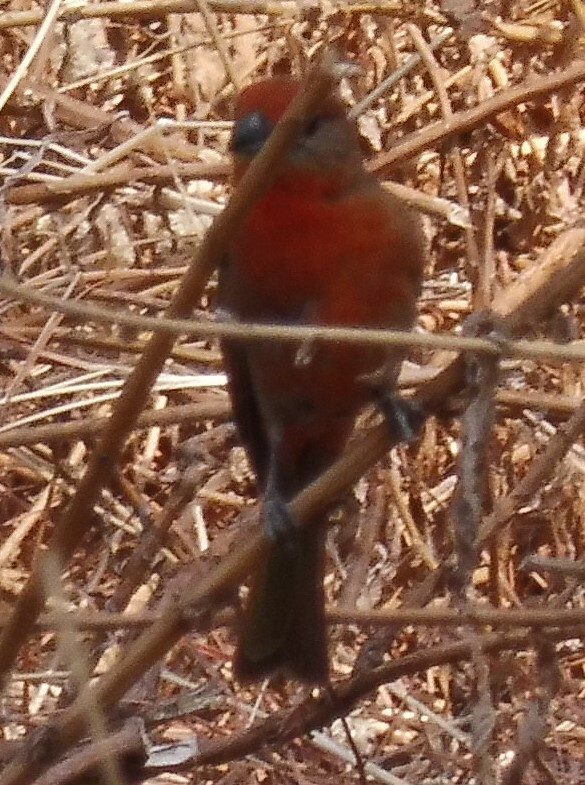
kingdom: Animalia
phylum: Chordata
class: Aves
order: Passeriformes
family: Cardinalidae
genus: Piranga
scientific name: Piranga flava
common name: Red tanager
